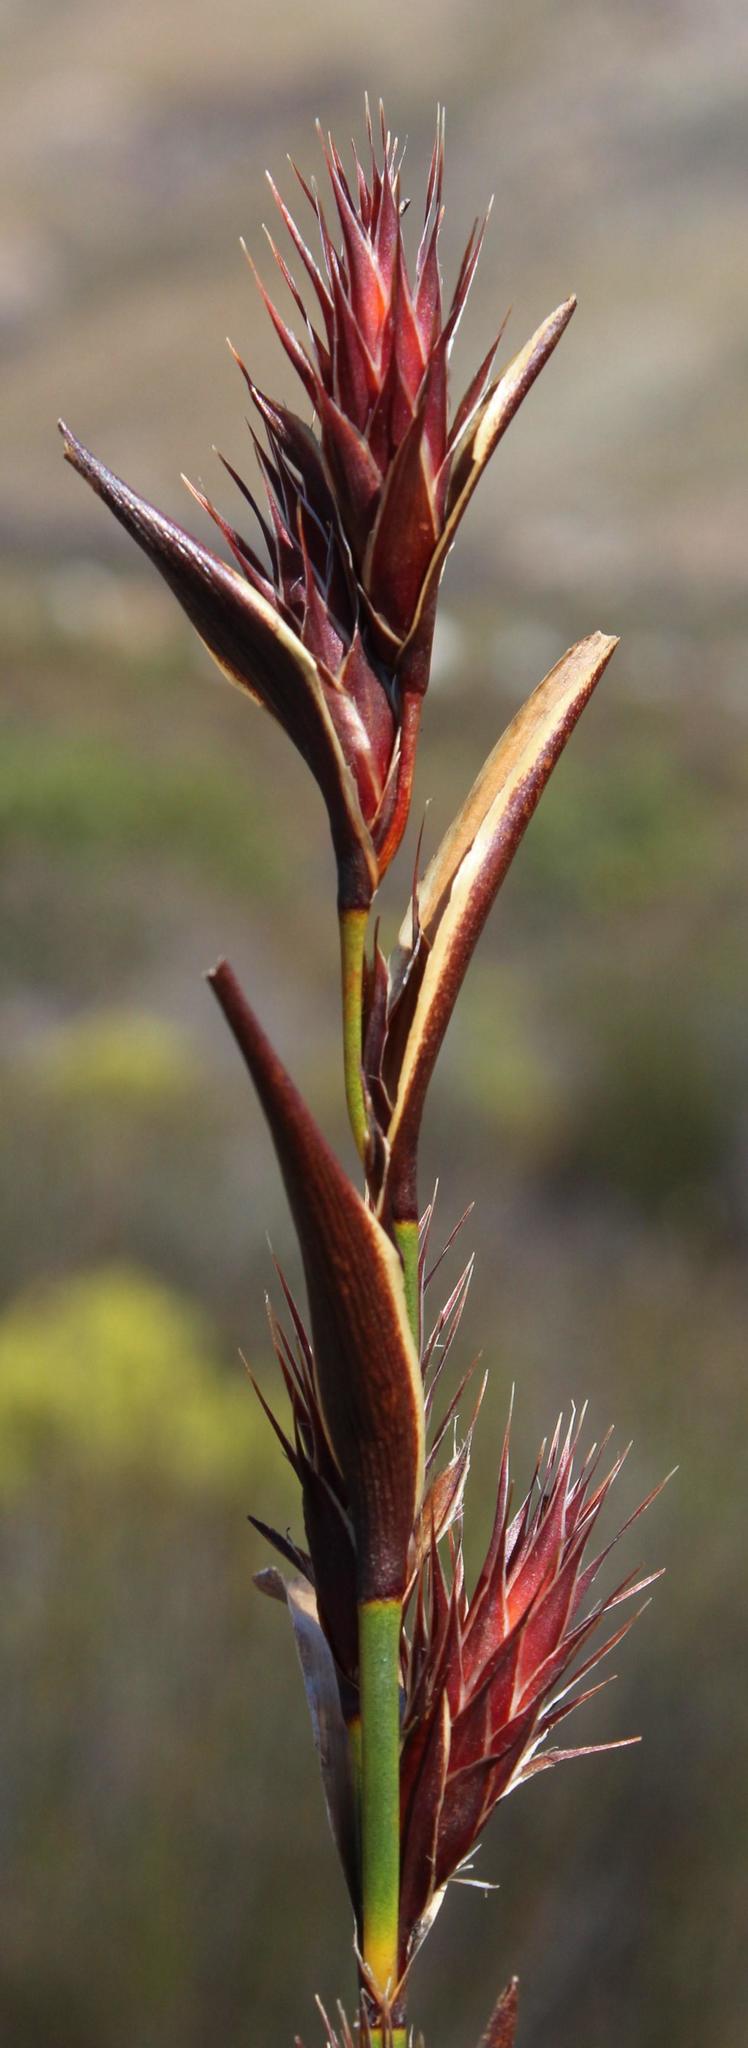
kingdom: Plantae
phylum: Tracheophyta
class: Liliopsida
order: Poales
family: Restionaceae
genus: Hypodiscus
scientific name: Hypodiscus aristatus
